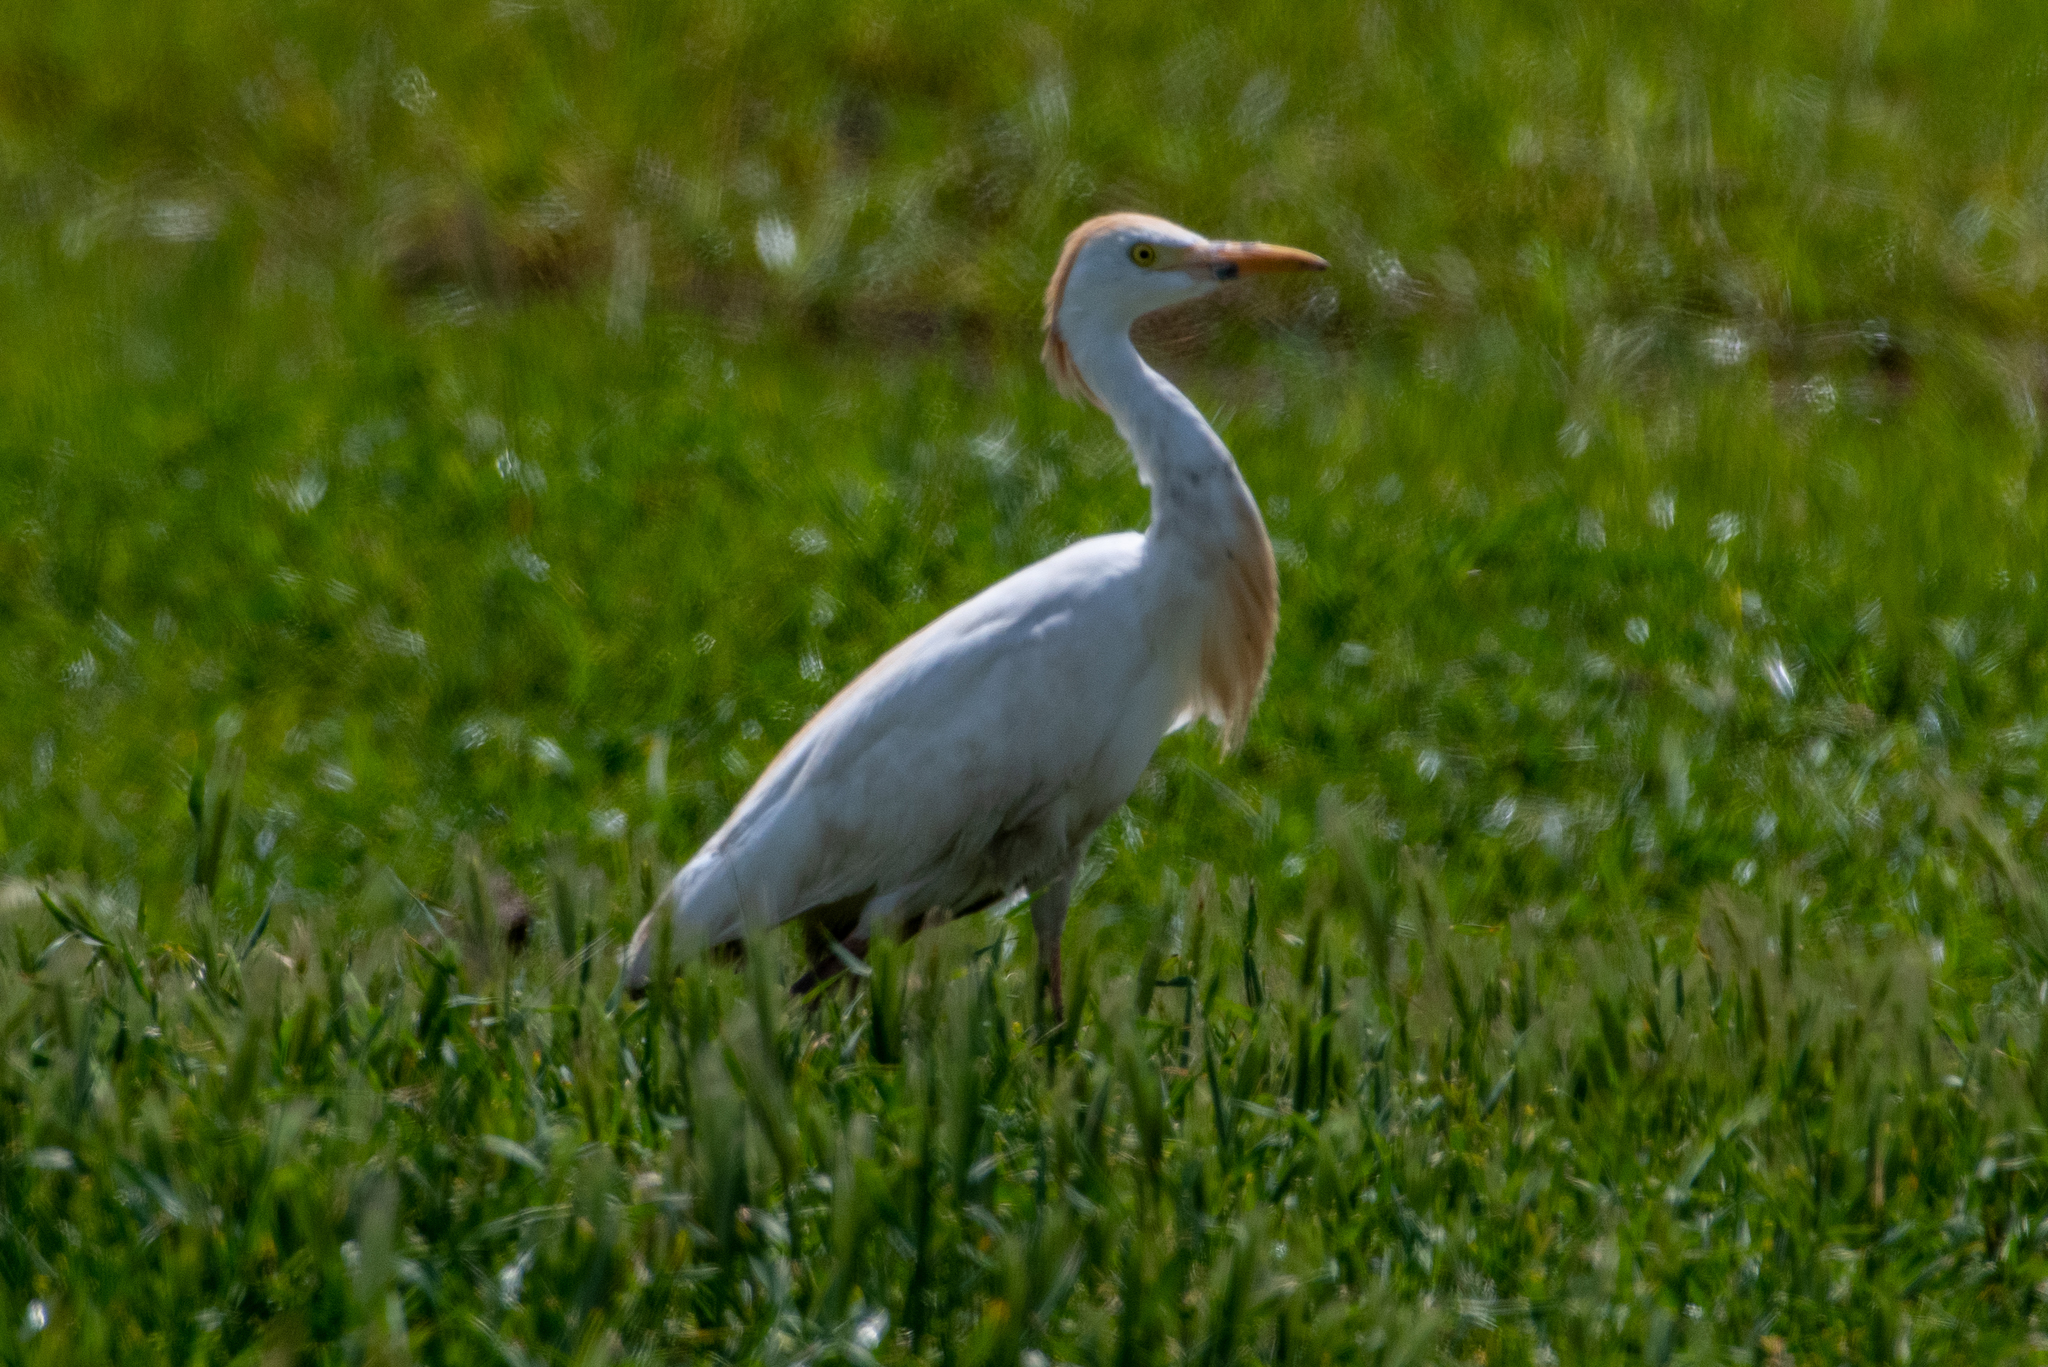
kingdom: Animalia
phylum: Chordata
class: Aves
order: Pelecaniformes
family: Ardeidae
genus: Bubulcus
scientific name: Bubulcus ibis
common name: Cattle egret
